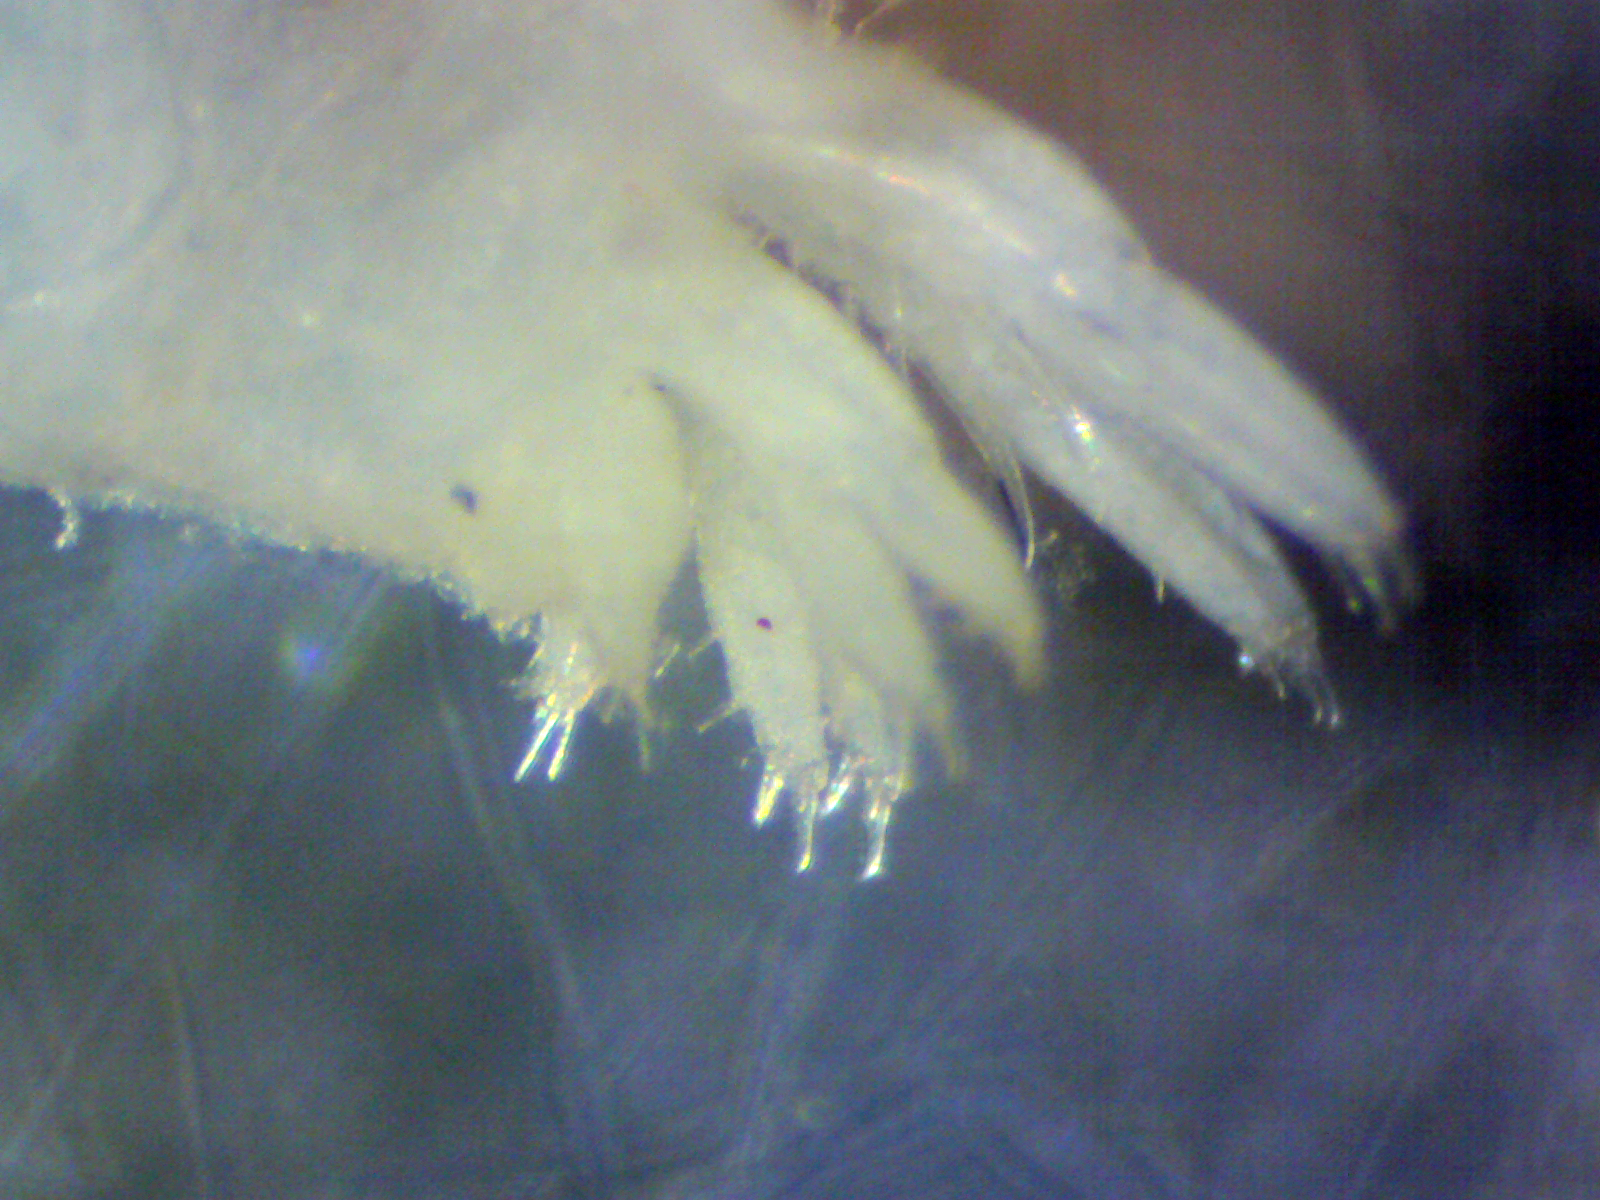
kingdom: Animalia
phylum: Arthropoda
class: Malacostraca
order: Amphipoda
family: Hyalidae
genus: Ptilohyale
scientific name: Ptilohyale plumulosus
